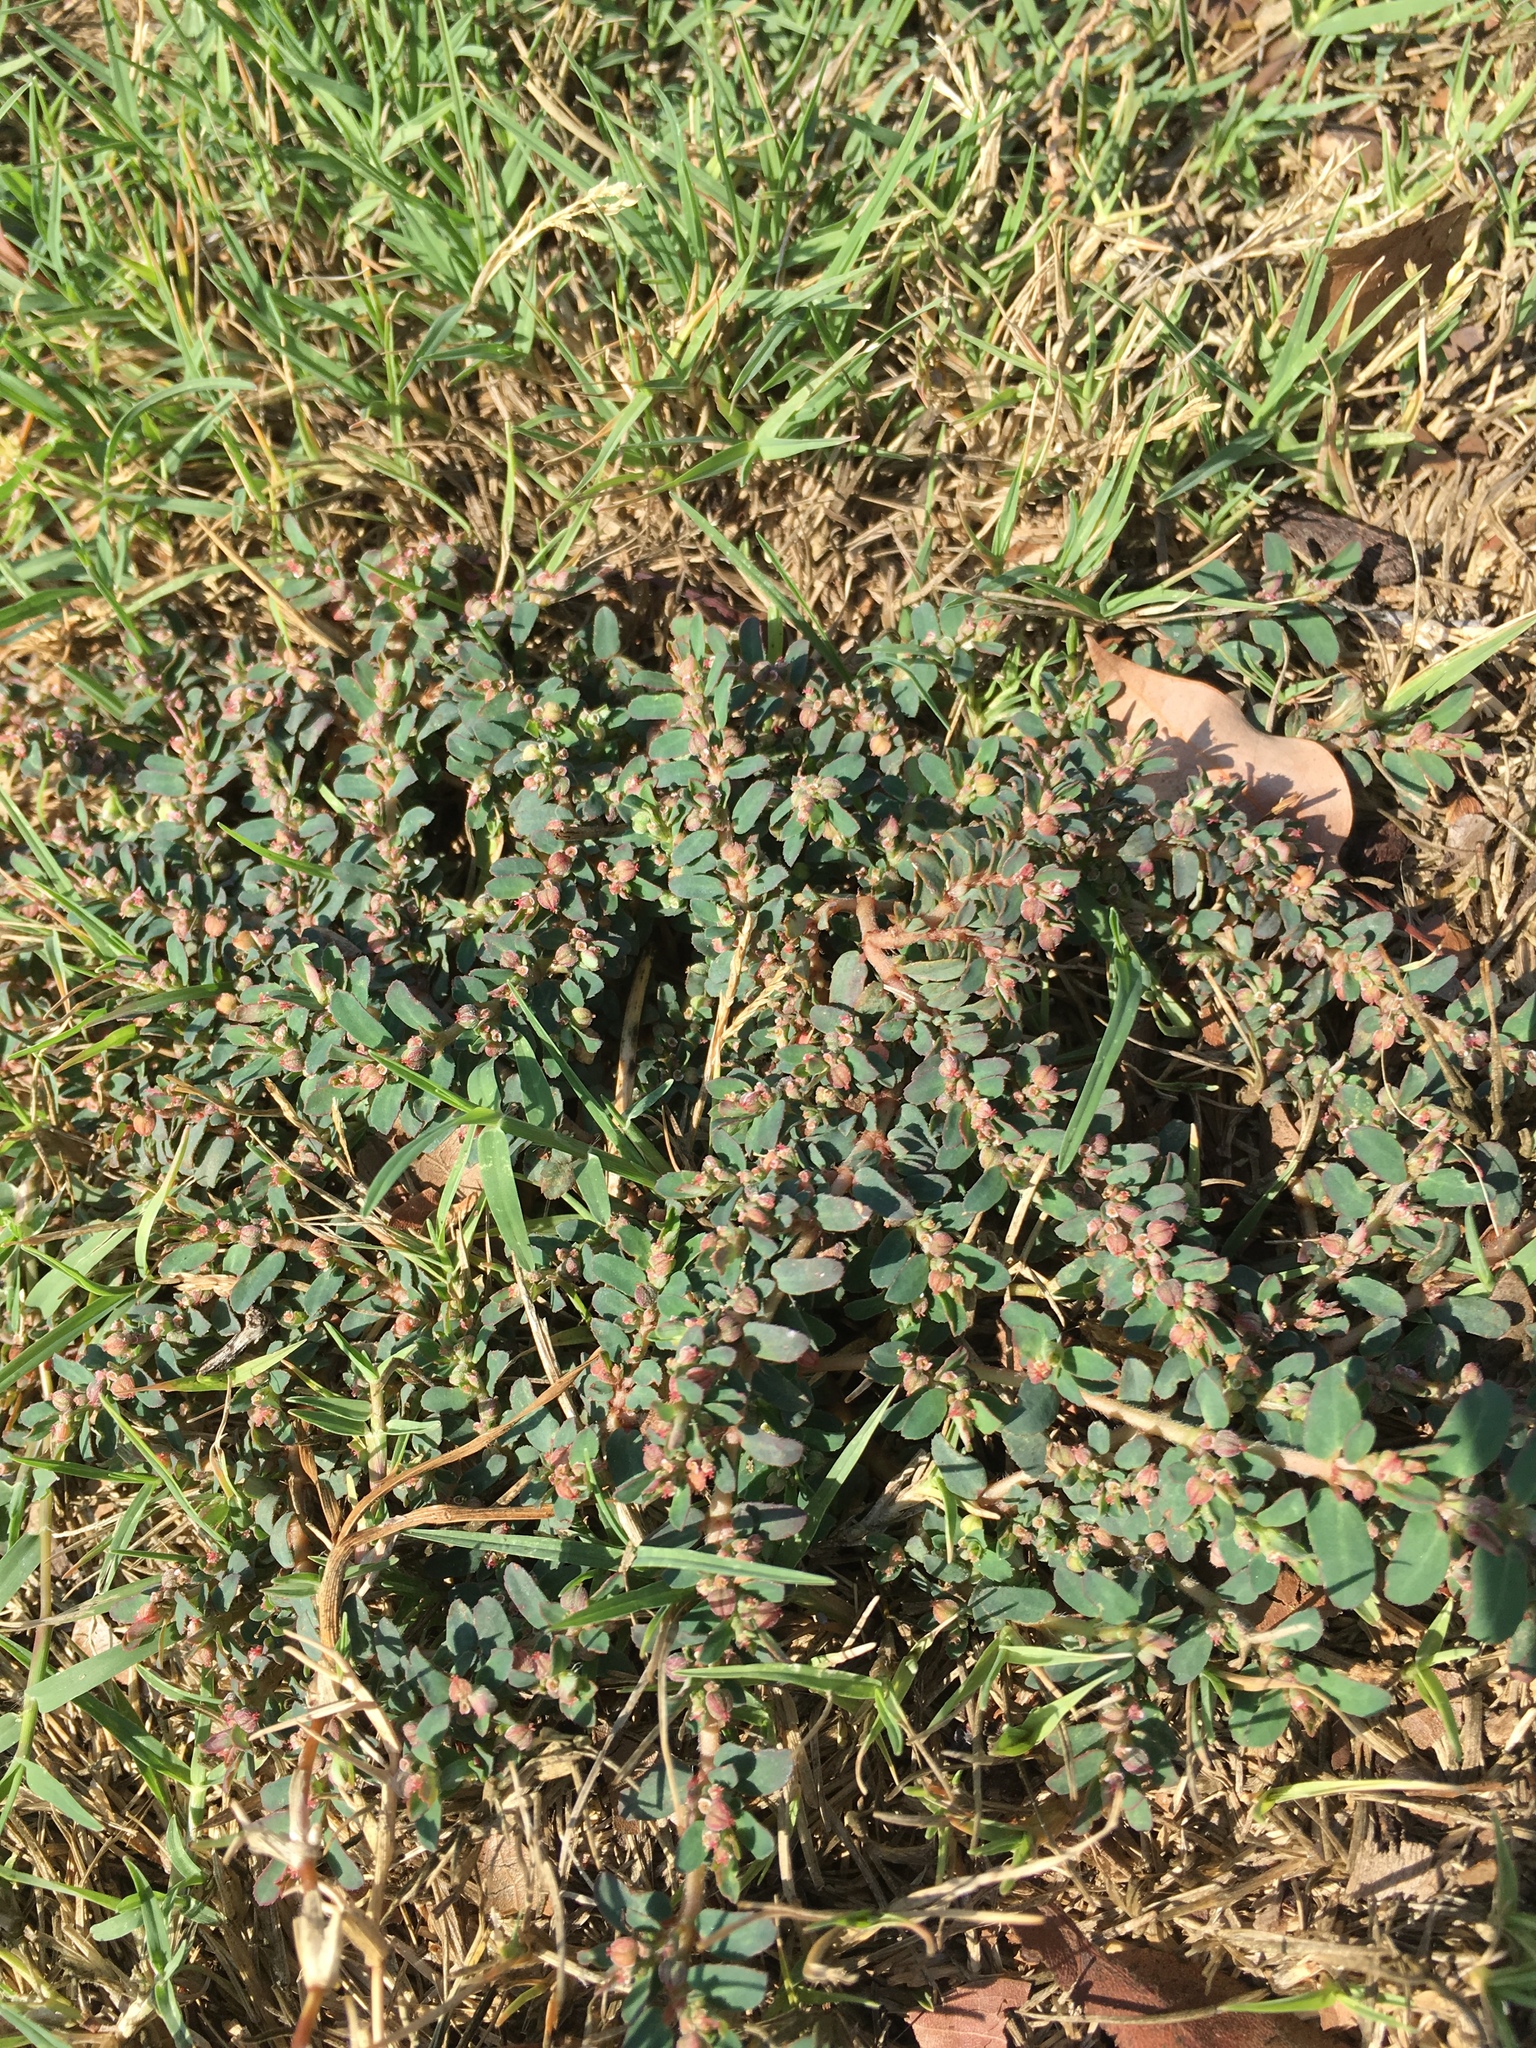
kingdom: Plantae
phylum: Tracheophyta
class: Magnoliopsida
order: Malpighiales
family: Euphorbiaceae
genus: Euphorbia
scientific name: Euphorbia maculata
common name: Spotted spurge
